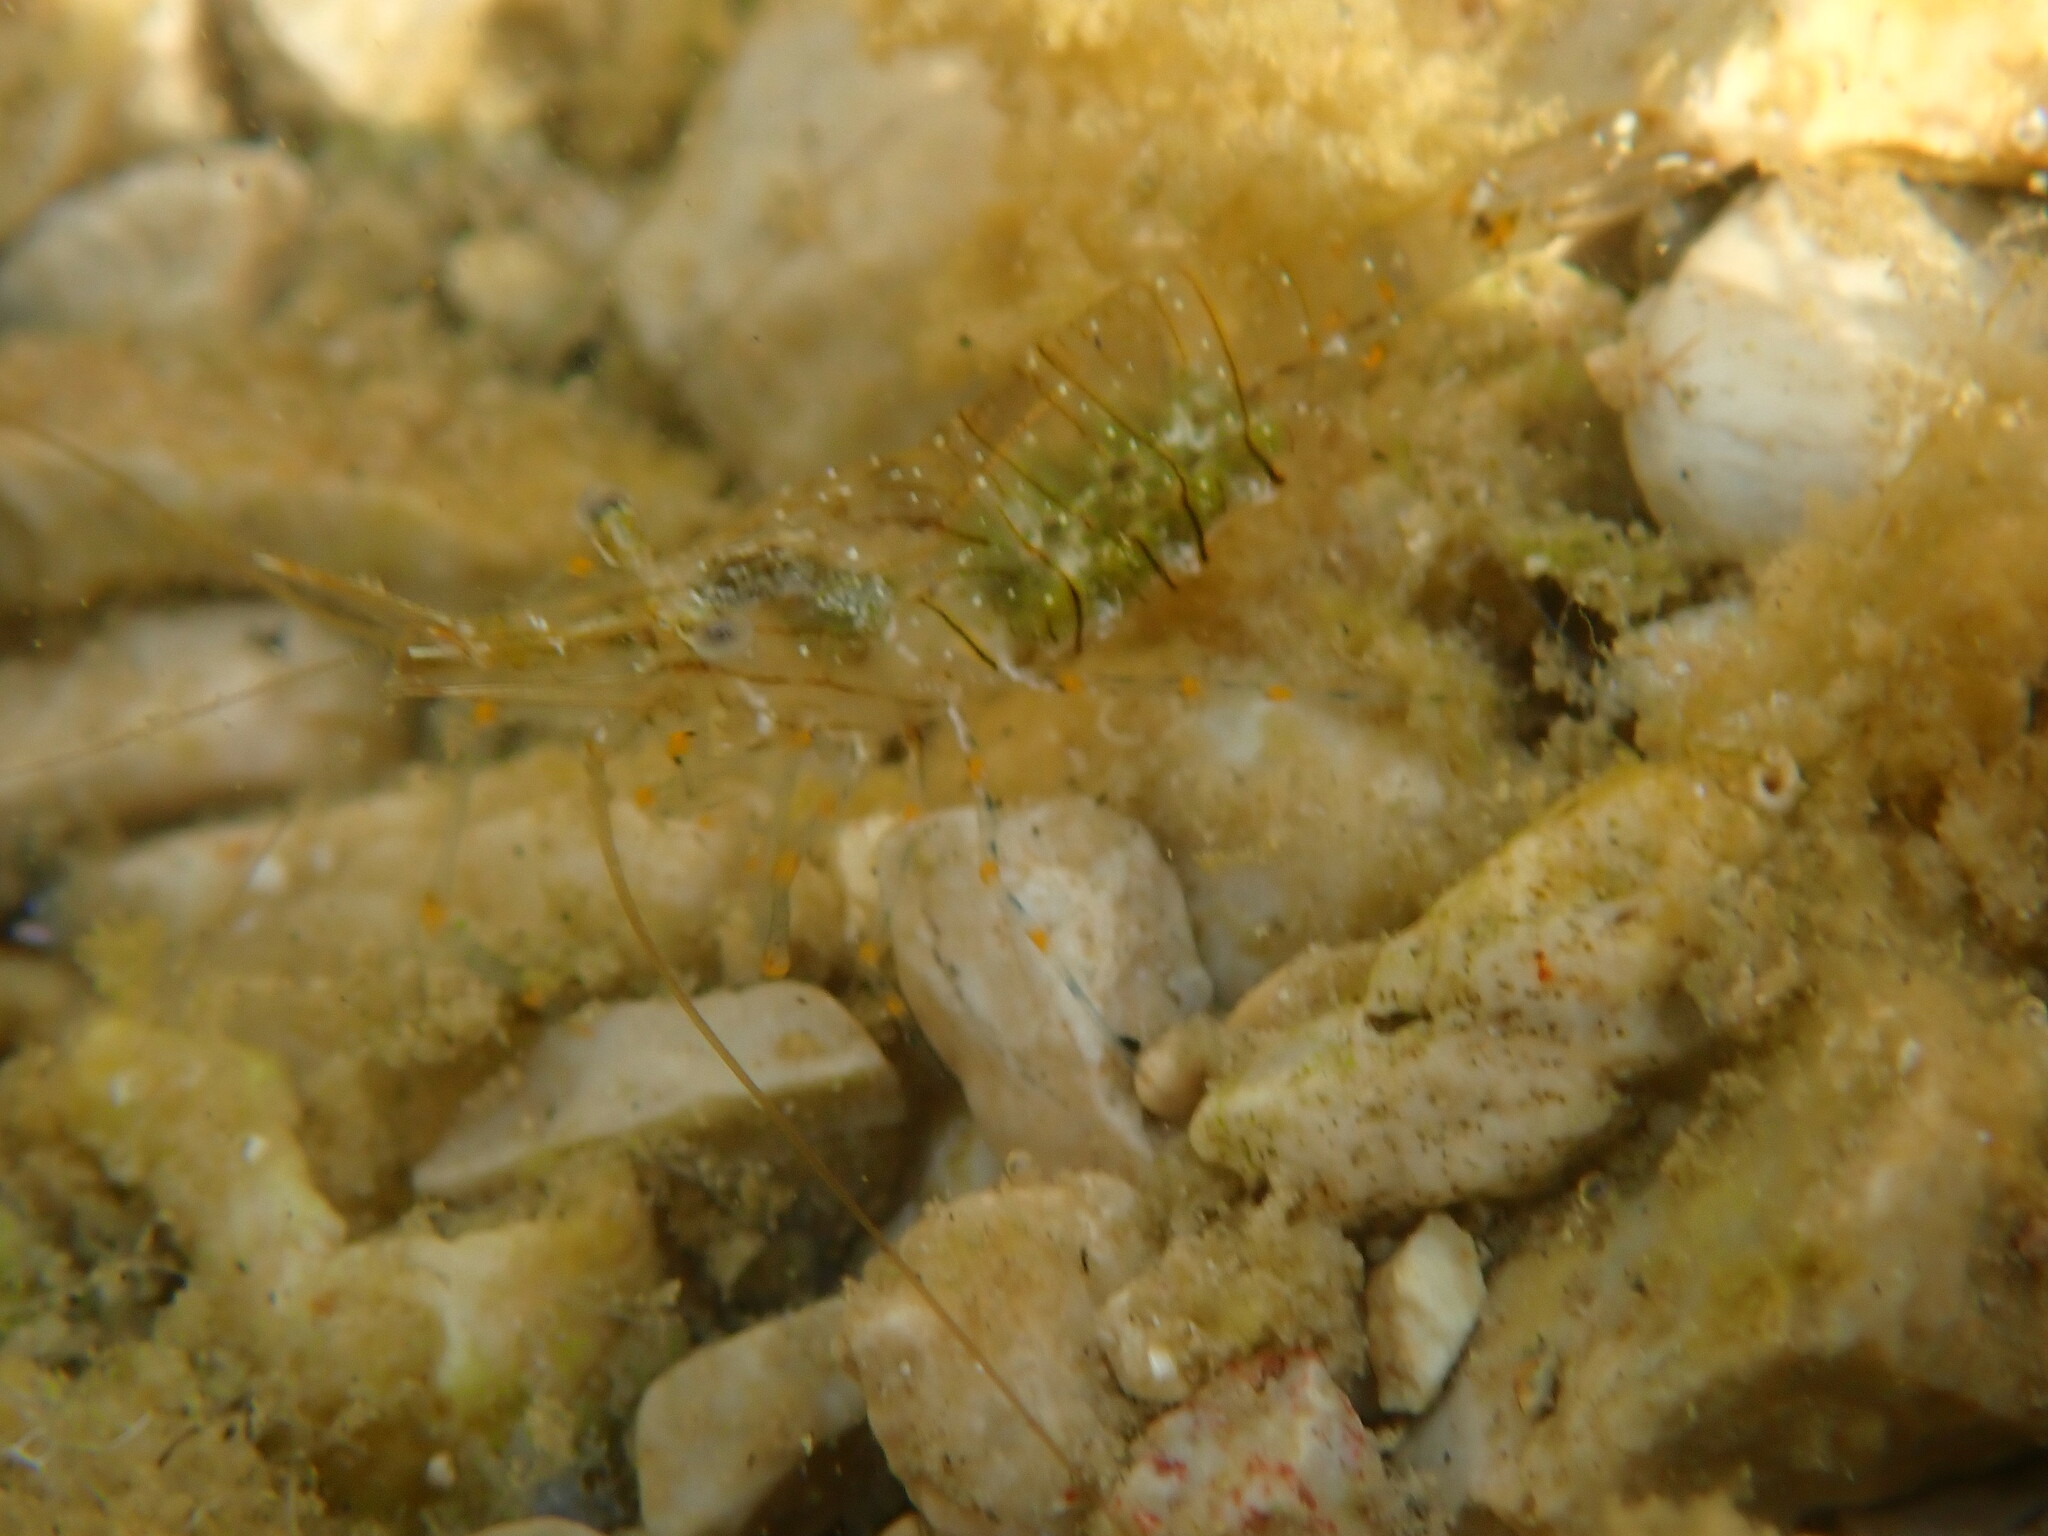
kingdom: Animalia
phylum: Arthropoda
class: Malacostraca
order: Decapoda
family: Palaemonidae
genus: Palaemon
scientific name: Palaemon elegans
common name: Grass prawm
